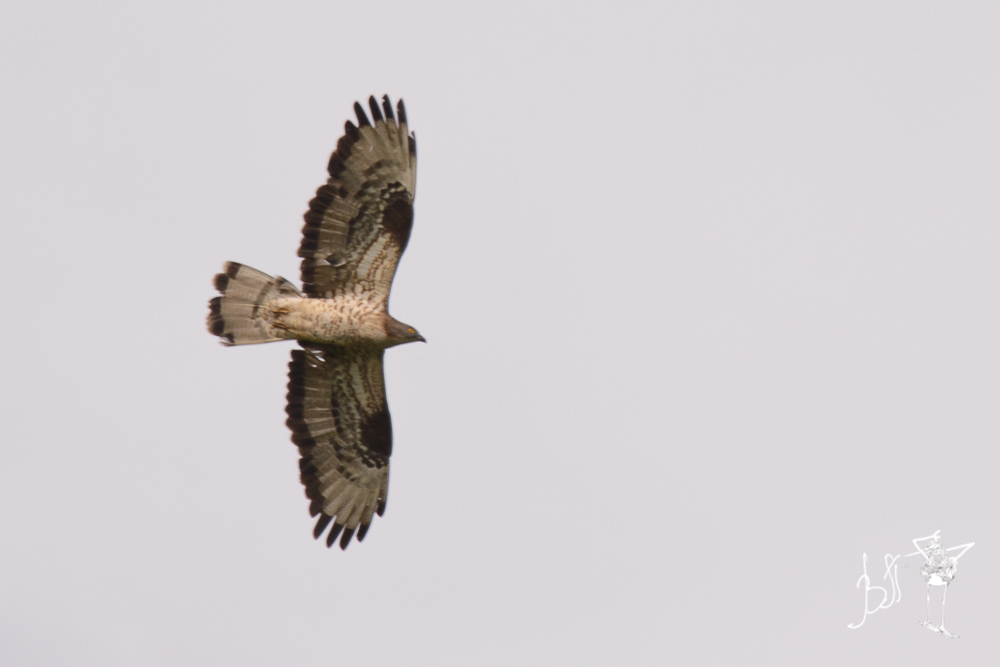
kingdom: Animalia
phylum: Chordata
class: Aves
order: Accipitriformes
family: Accipitridae
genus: Pernis
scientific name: Pernis apivorus
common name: European honey buzzard
